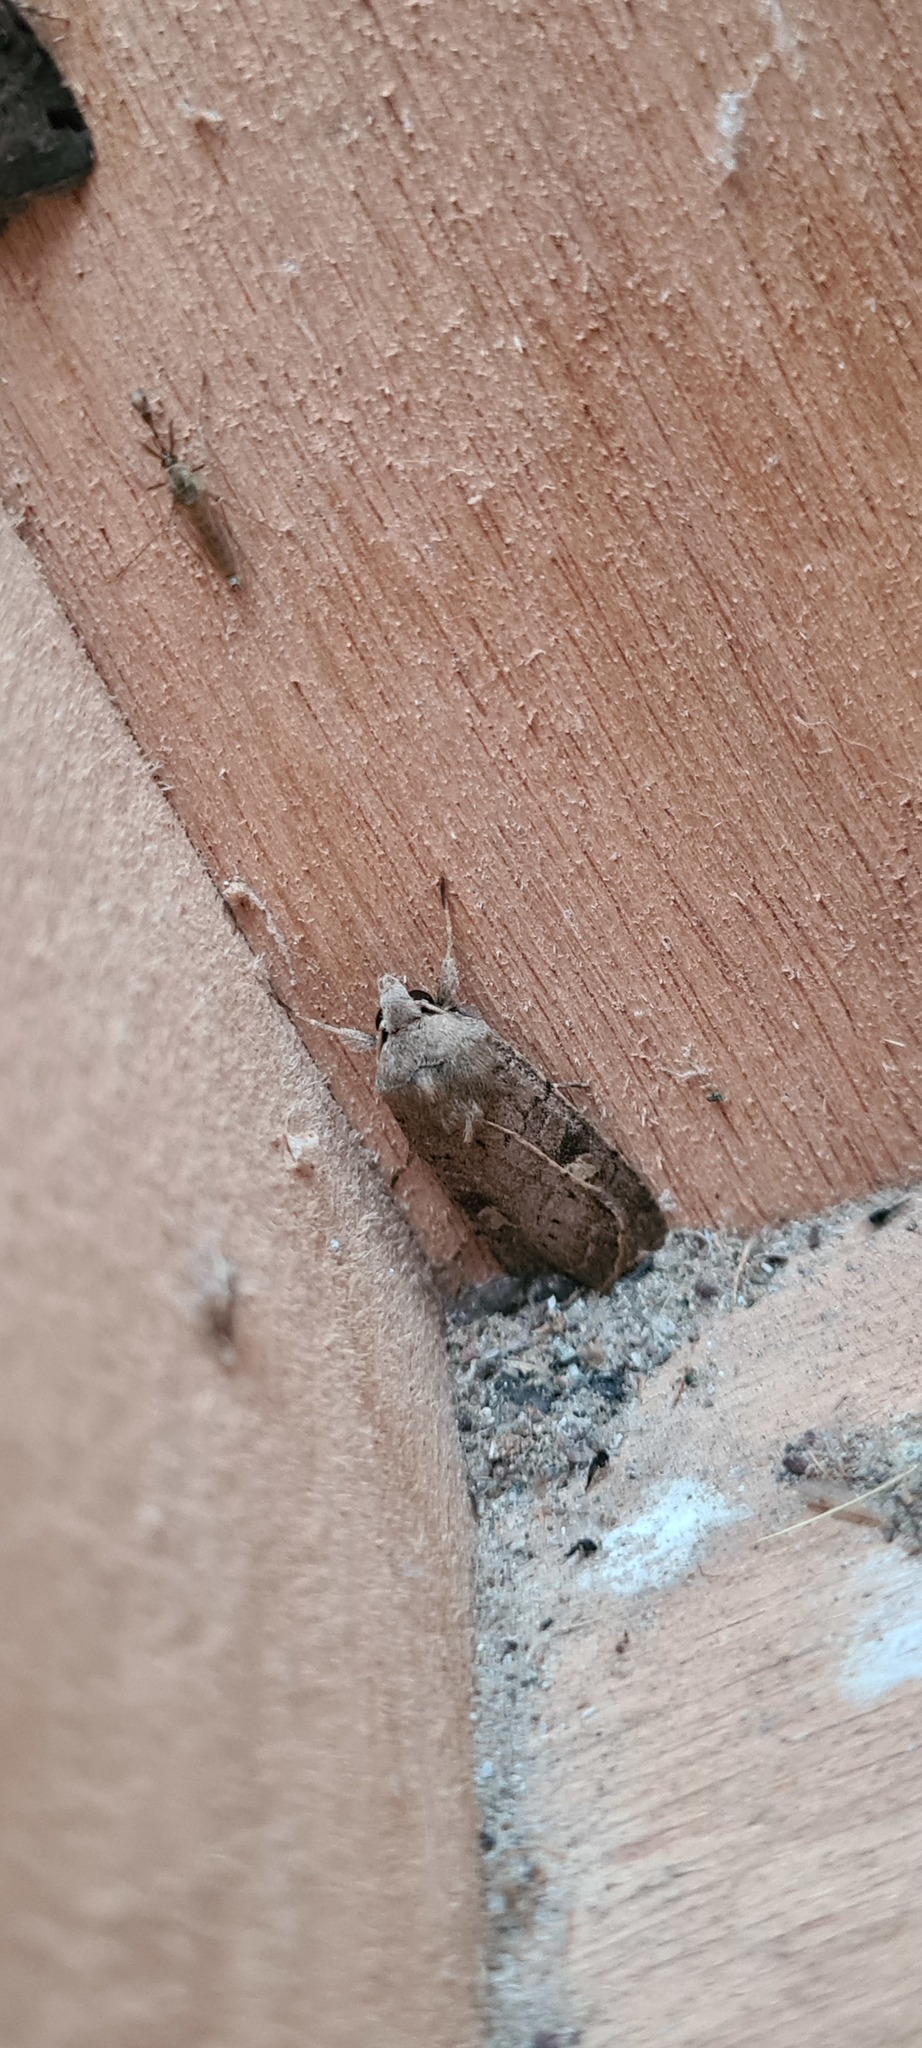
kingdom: Animalia
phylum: Arthropoda
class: Insecta
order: Lepidoptera
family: Noctuidae
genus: Xestia
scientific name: Xestia xanthographa
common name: Square-spot rustic
